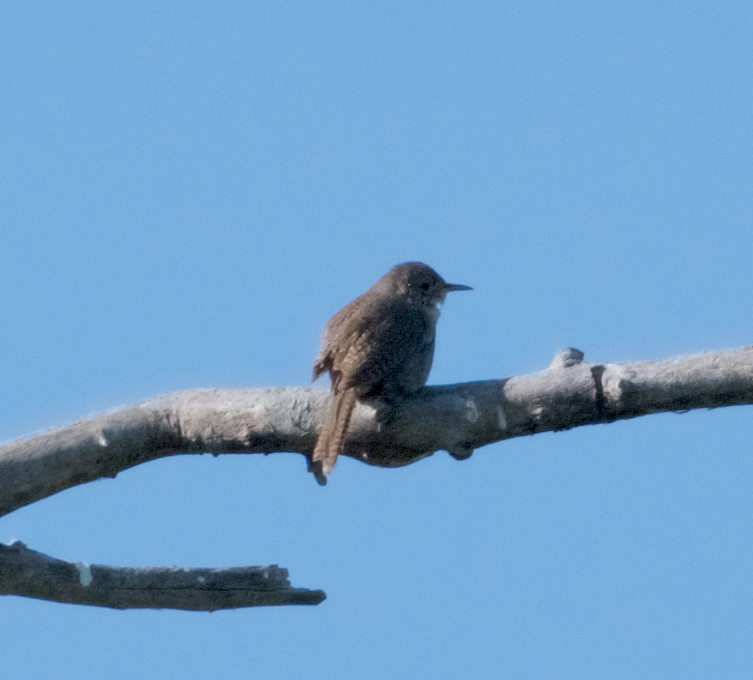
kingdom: Animalia
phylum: Chordata
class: Aves
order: Passeriformes
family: Troglodytidae
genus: Troglodytes
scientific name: Troglodytes aedon
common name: House wren
